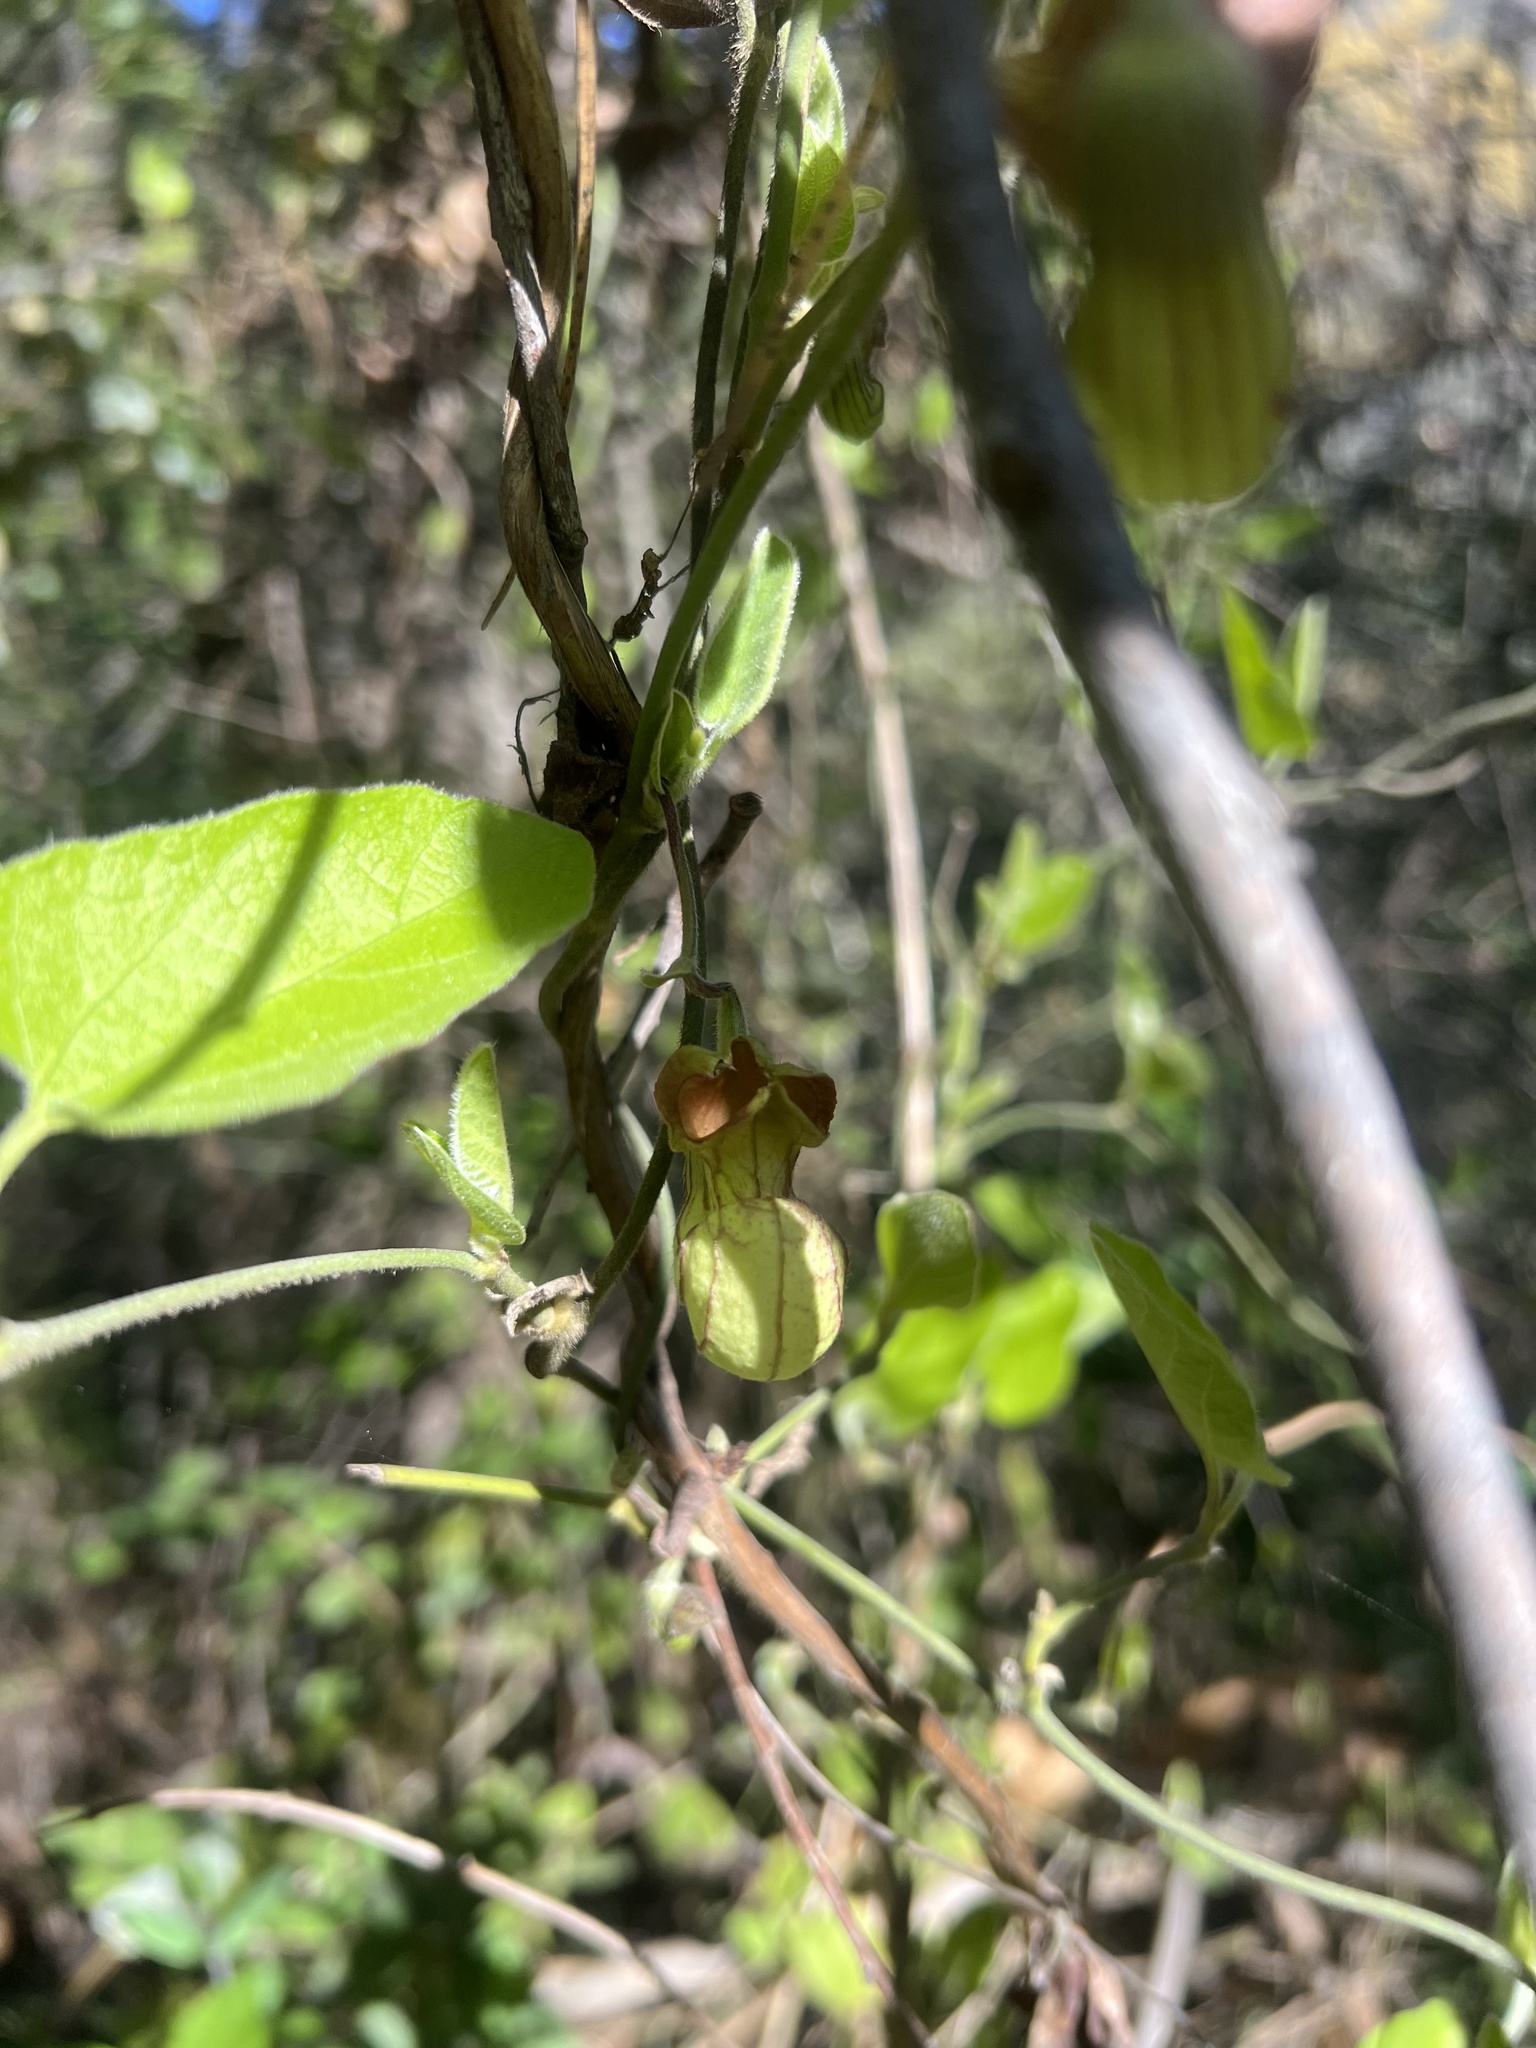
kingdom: Plantae
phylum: Tracheophyta
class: Magnoliopsida
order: Piperales
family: Aristolochiaceae
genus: Isotrema
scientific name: Isotrema californicum
